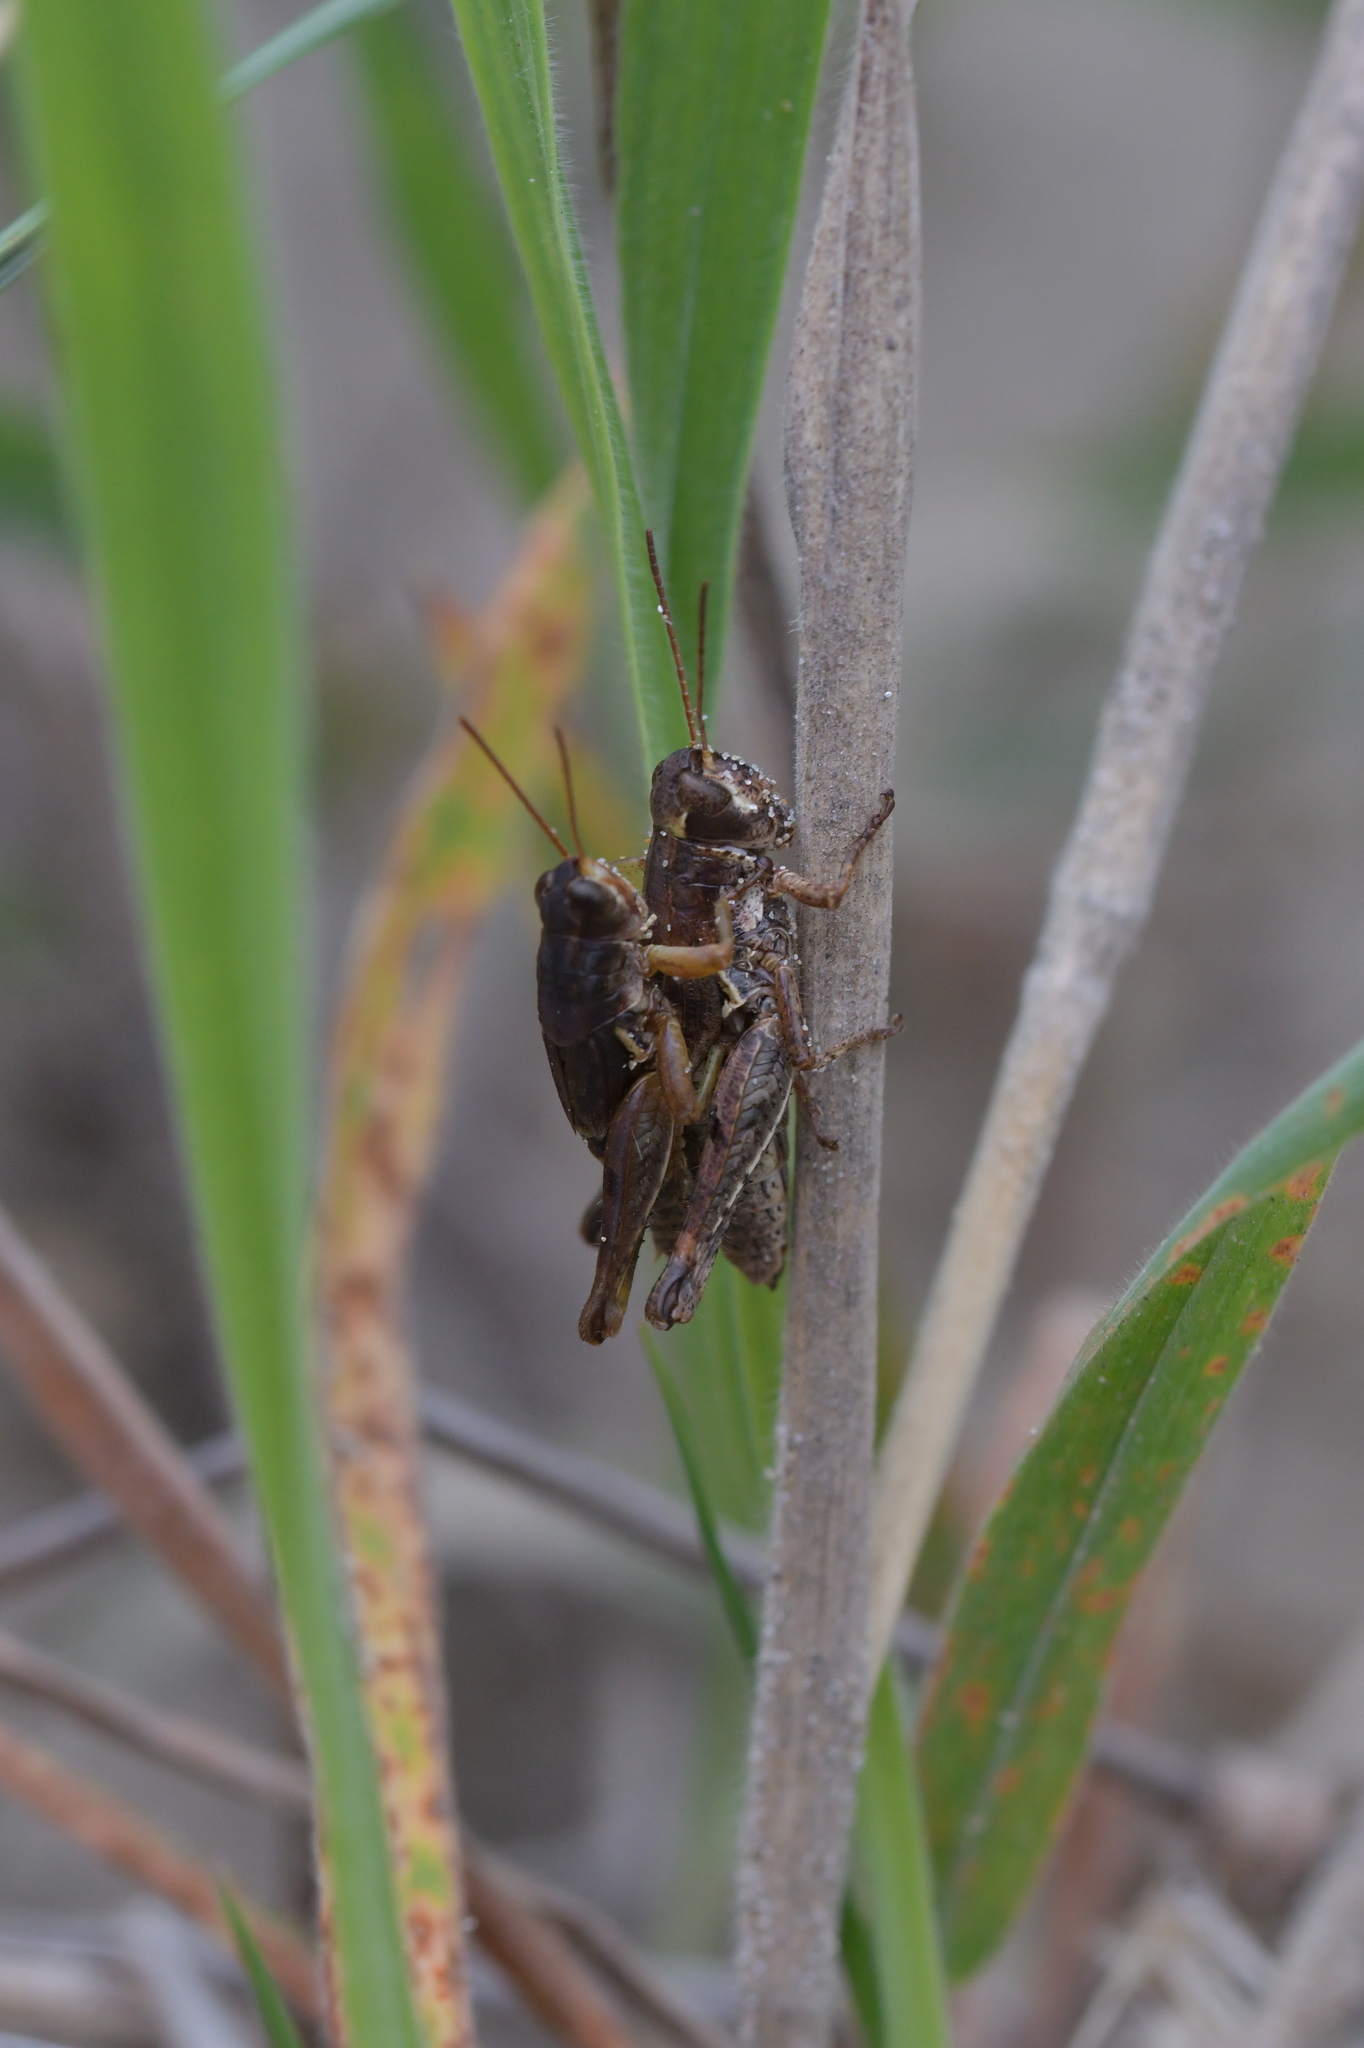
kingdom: Animalia
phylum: Arthropoda
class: Insecta
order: Orthoptera
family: Acrididae
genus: Phaulacridium
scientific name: Phaulacridium marginale
